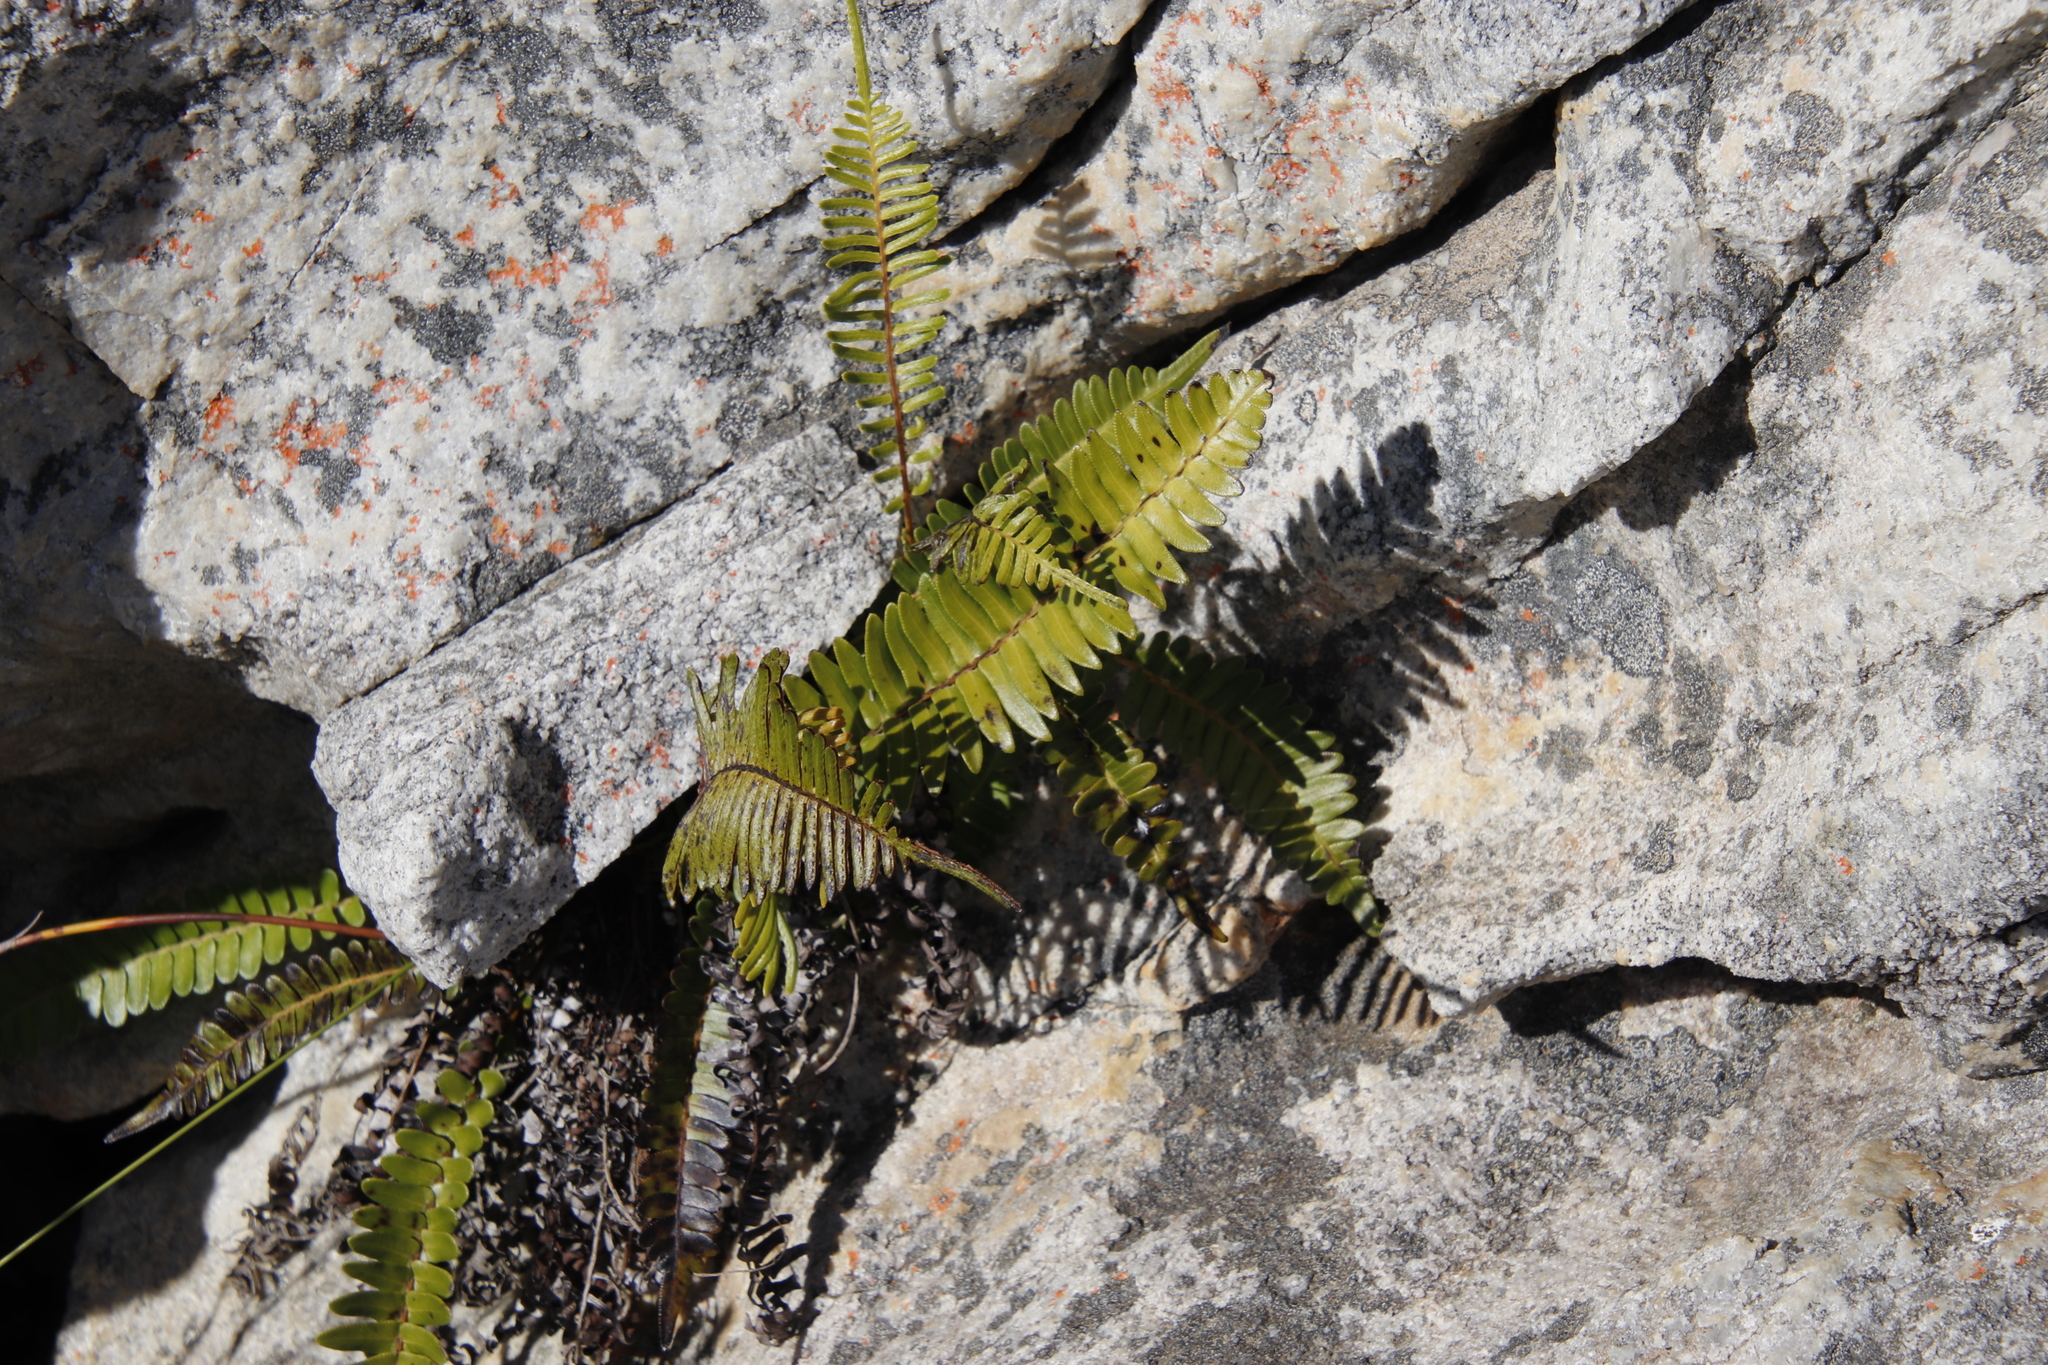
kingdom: Plantae
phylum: Tracheophyta
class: Polypodiopsida
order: Polypodiales
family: Blechnaceae
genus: Blechnum
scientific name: Blechnum punctulatum
